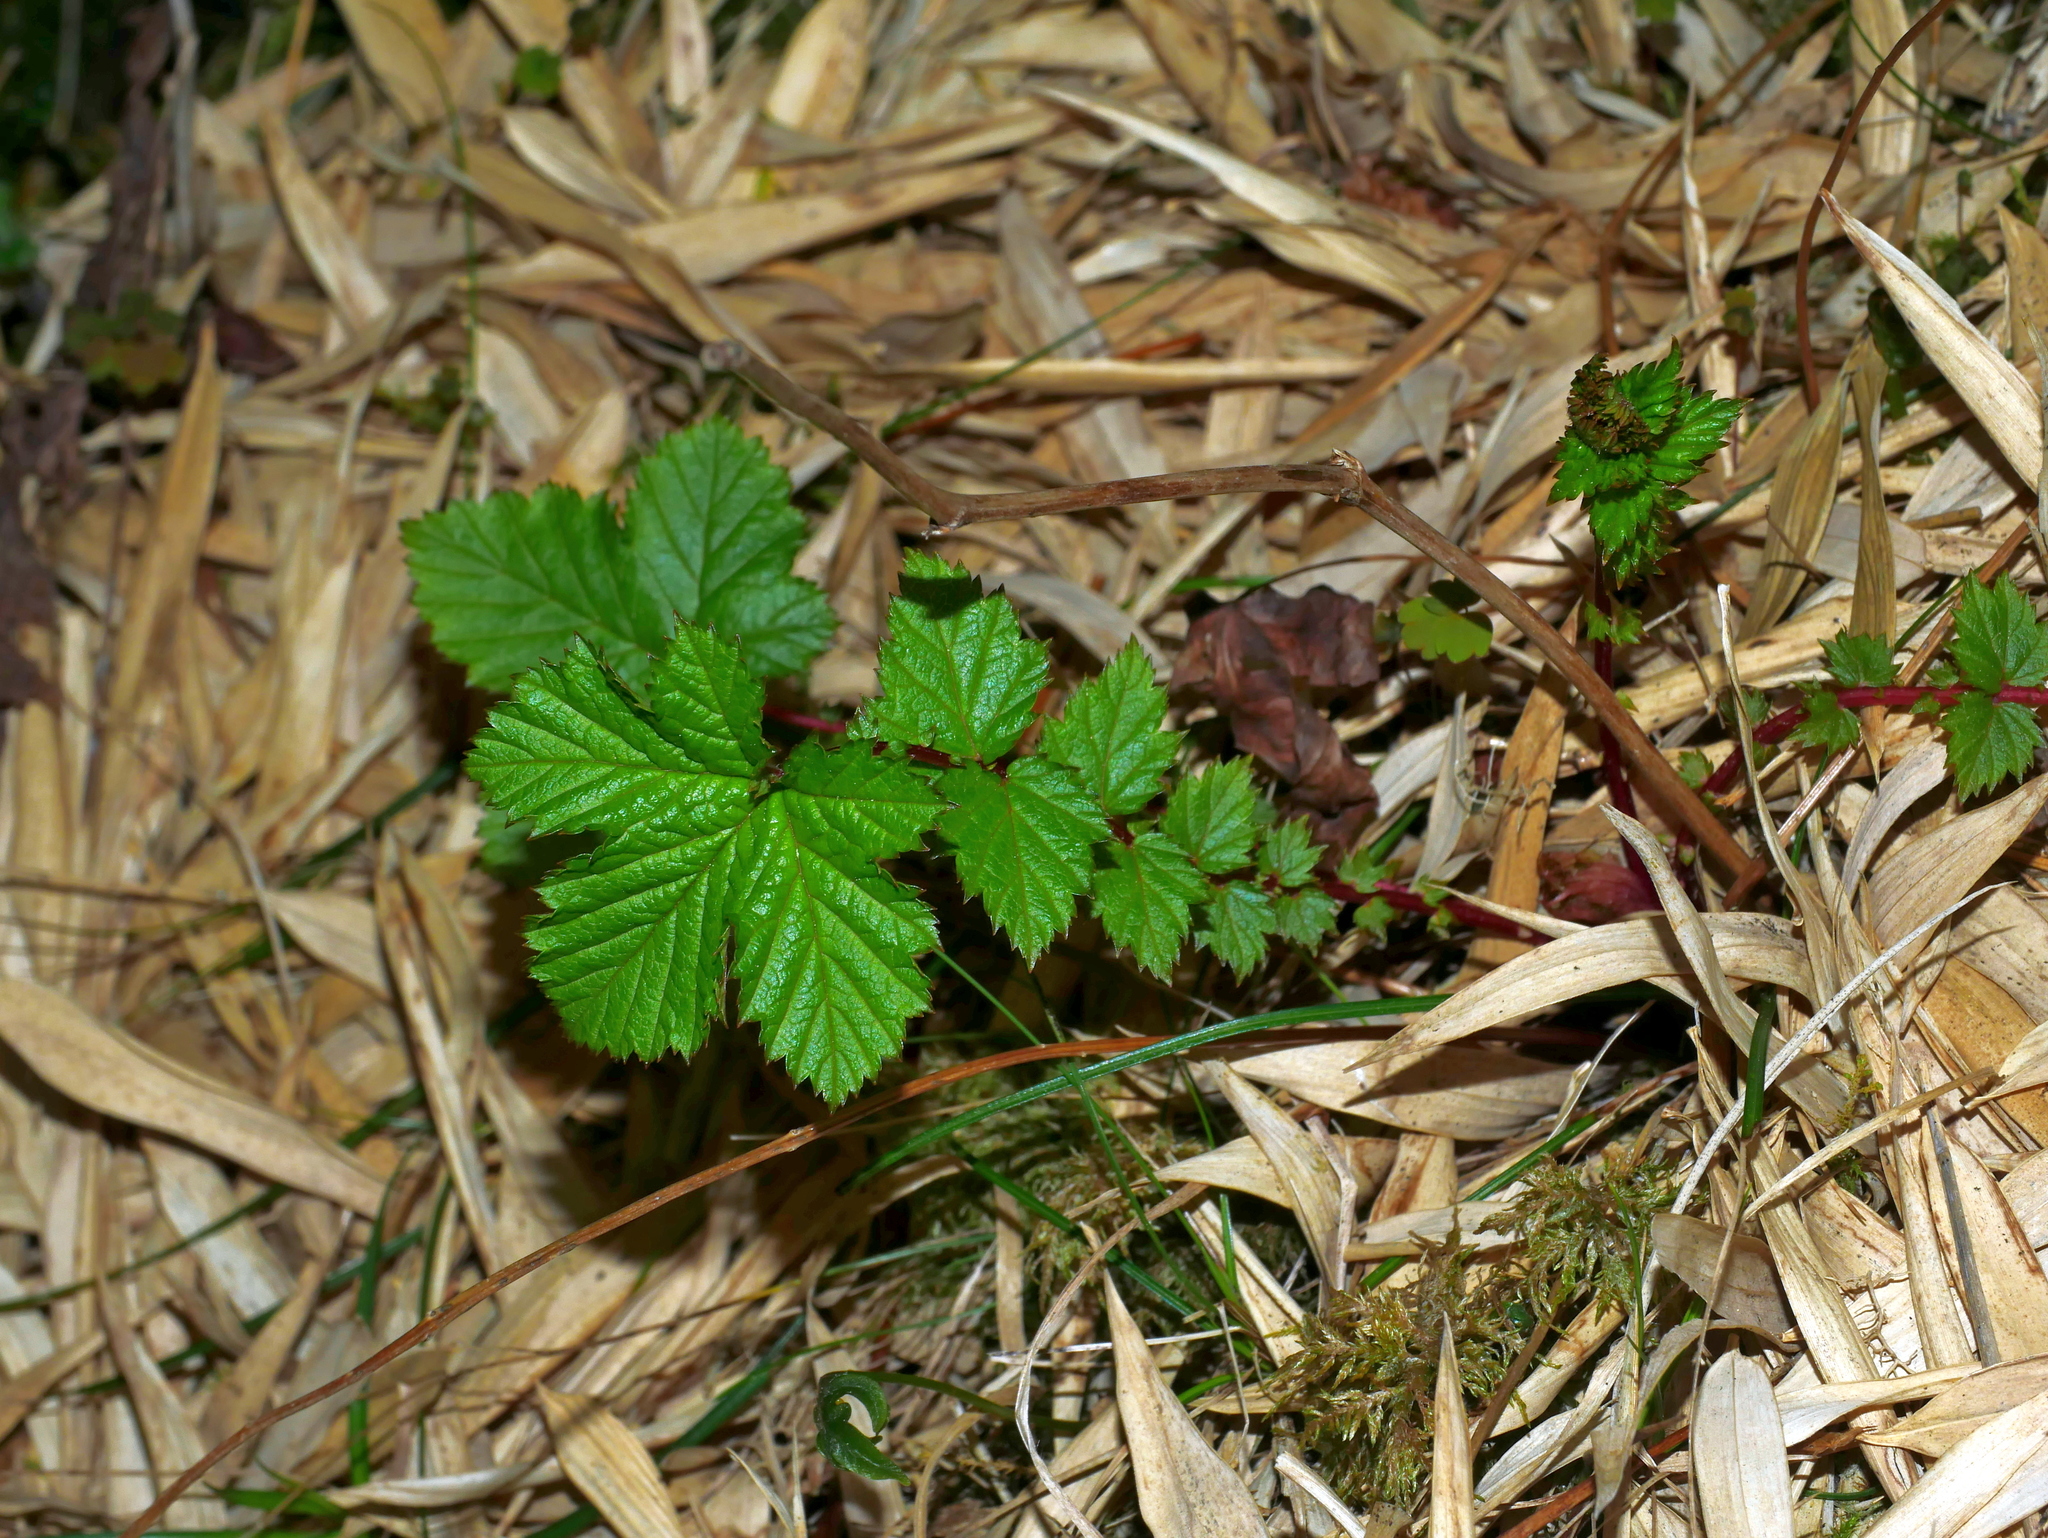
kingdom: Plantae
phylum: Tracheophyta
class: Magnoliopsida
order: Rosales
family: Rosaceae
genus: Filipendula
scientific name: Filipendula kiraishiensis
